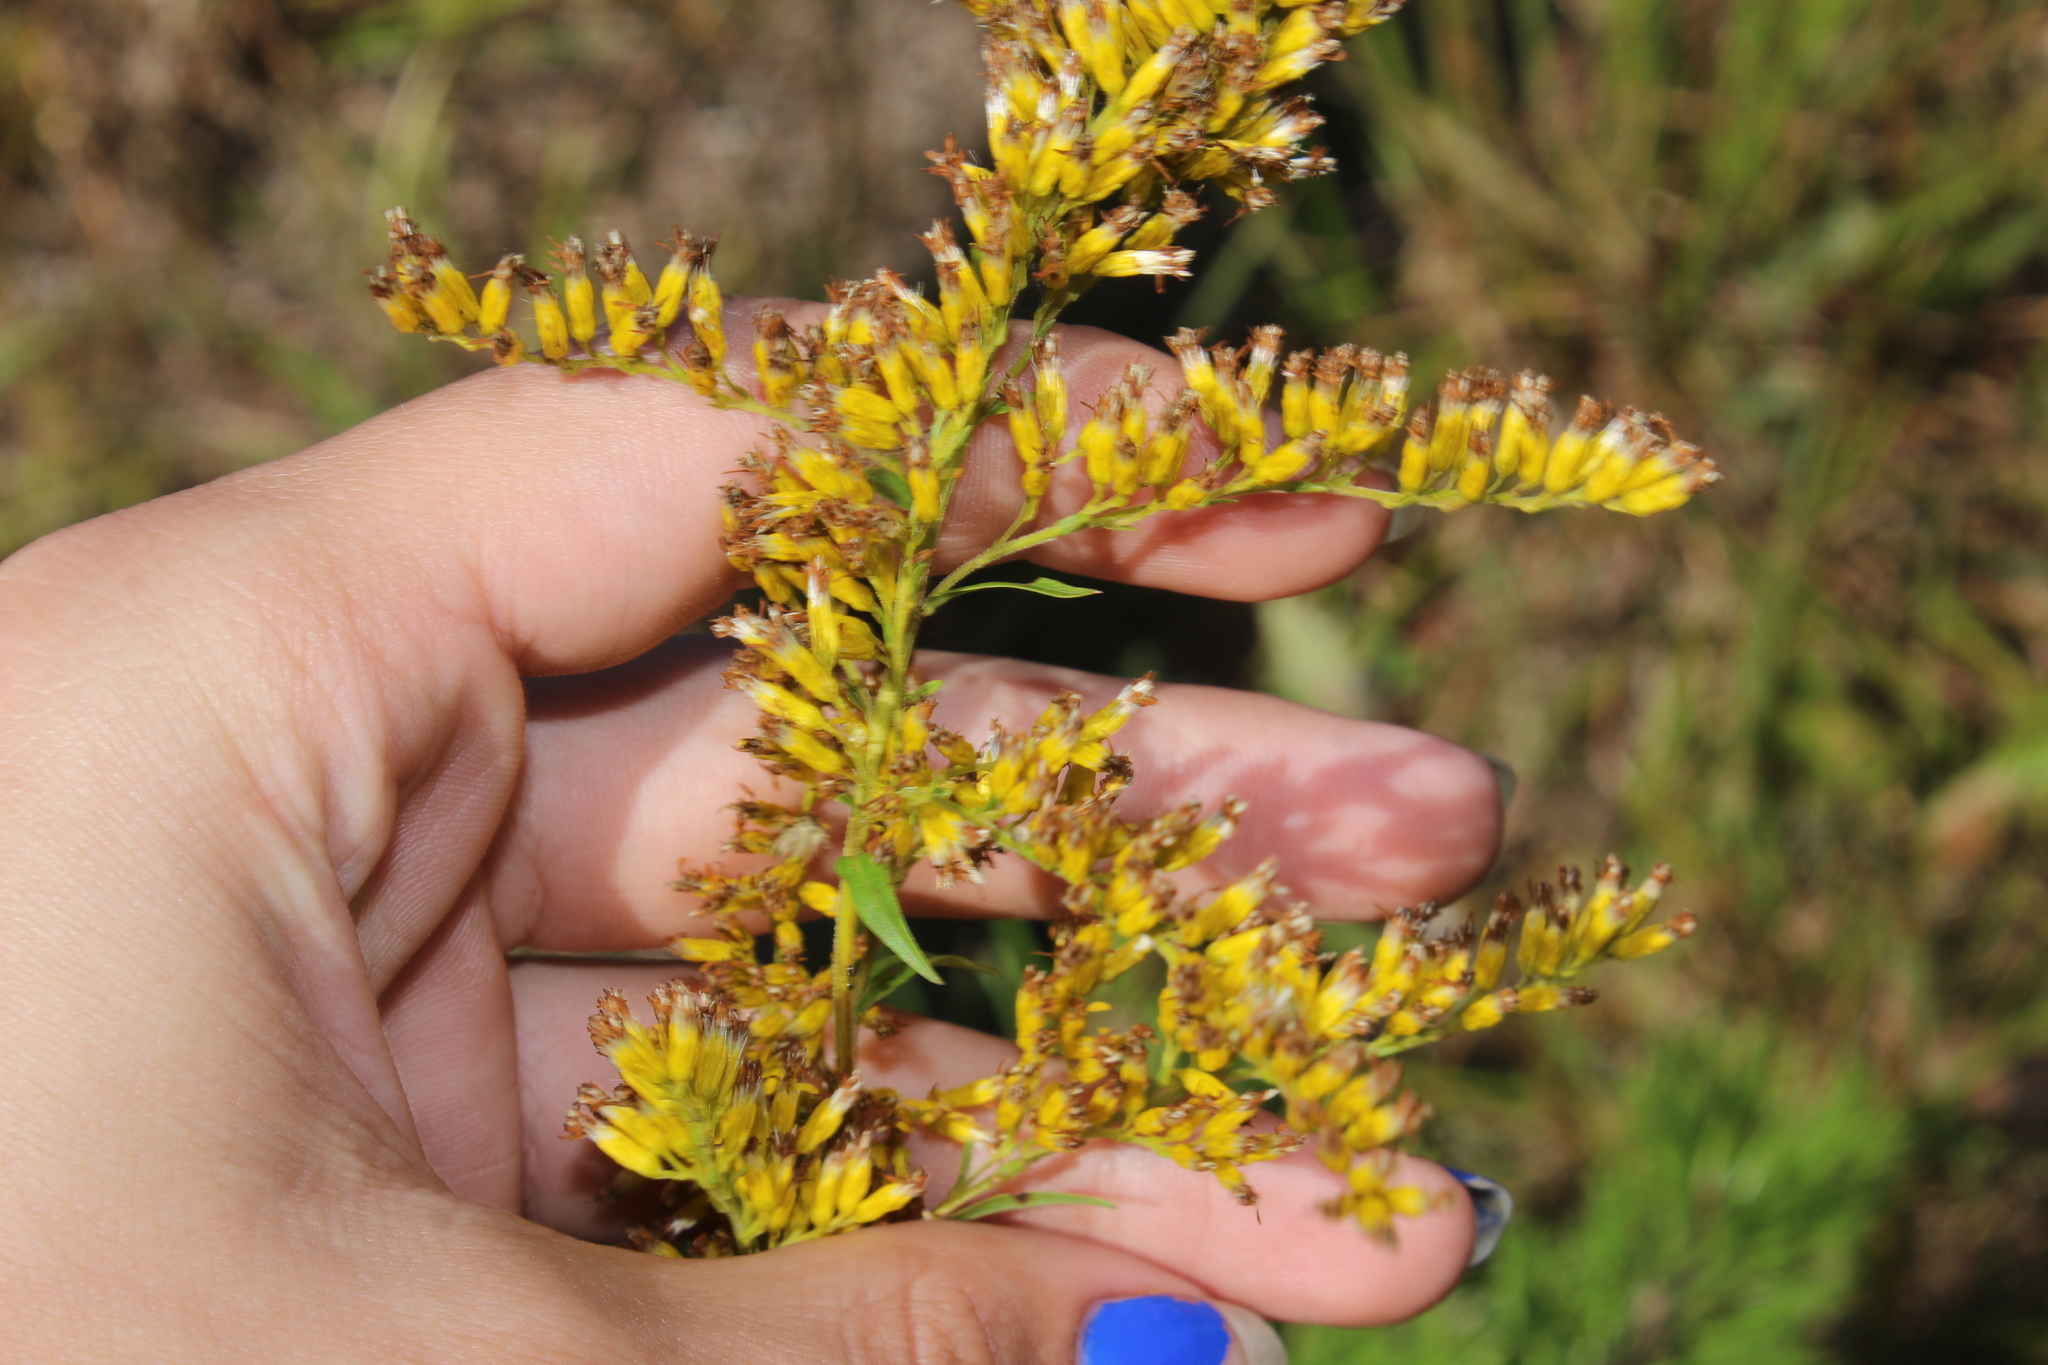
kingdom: Plantae
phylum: Tracheophyta
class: Magnoliopsida
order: Asterales
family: Asteraceae
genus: Solidago
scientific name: Solidago odora
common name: Anise-scented goldenrod
